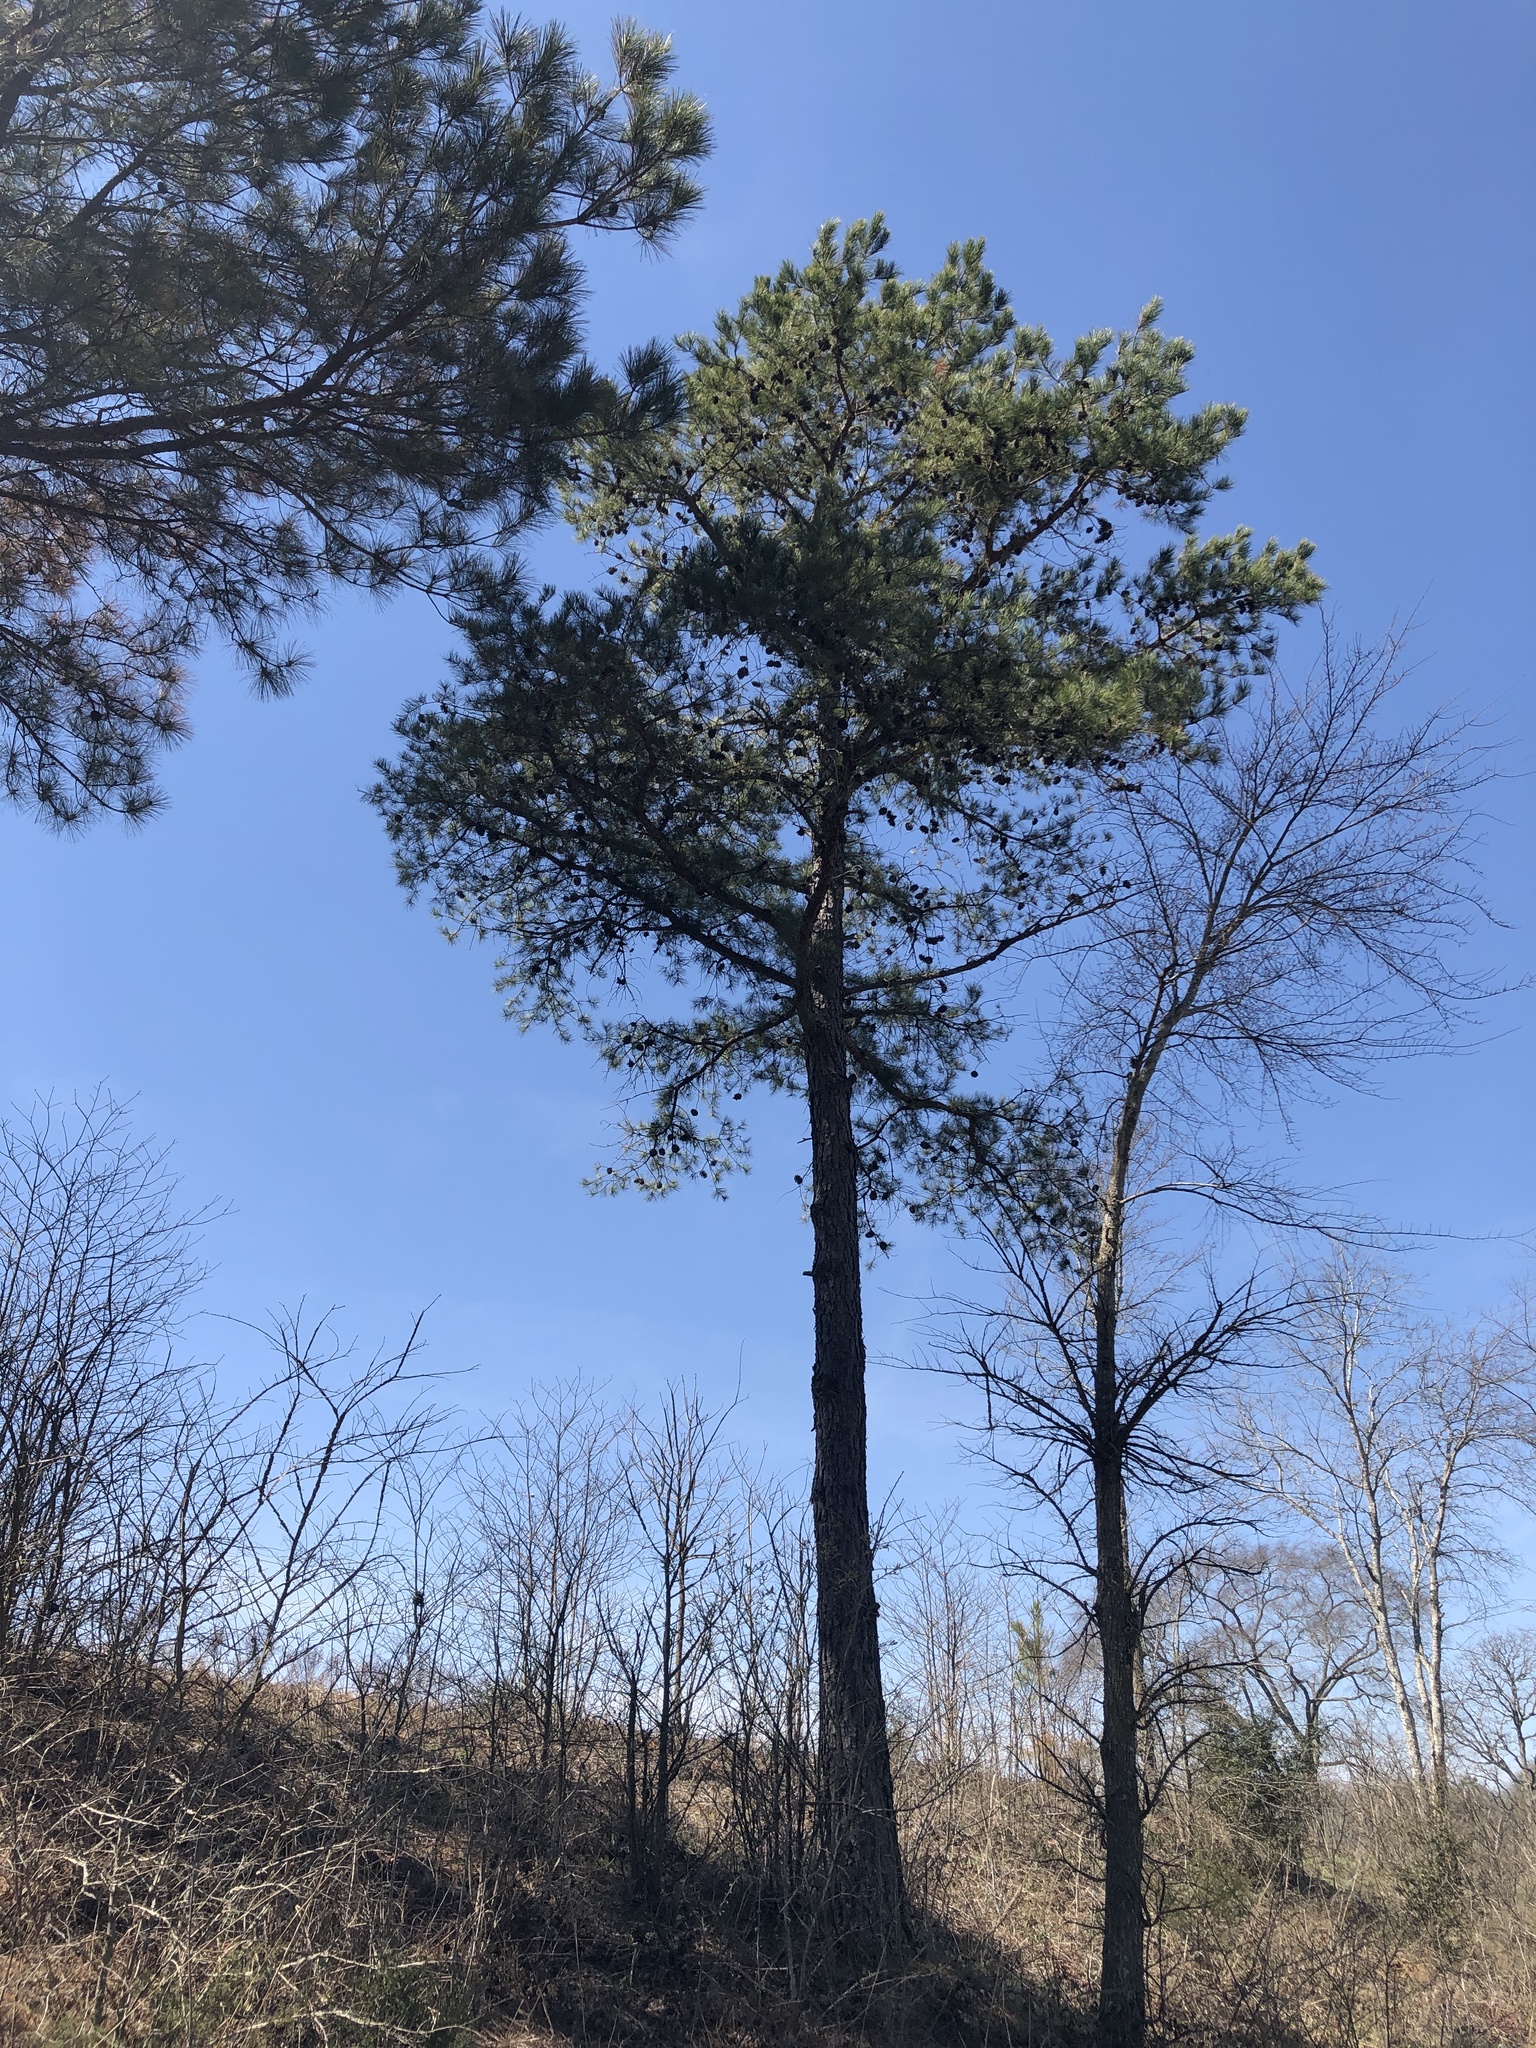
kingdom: Plantae
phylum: Tracheophyta
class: Pinopsida
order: Pinales
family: Pinaceae
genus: Pinus
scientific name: Pinus taeda
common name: Loblolly pine
